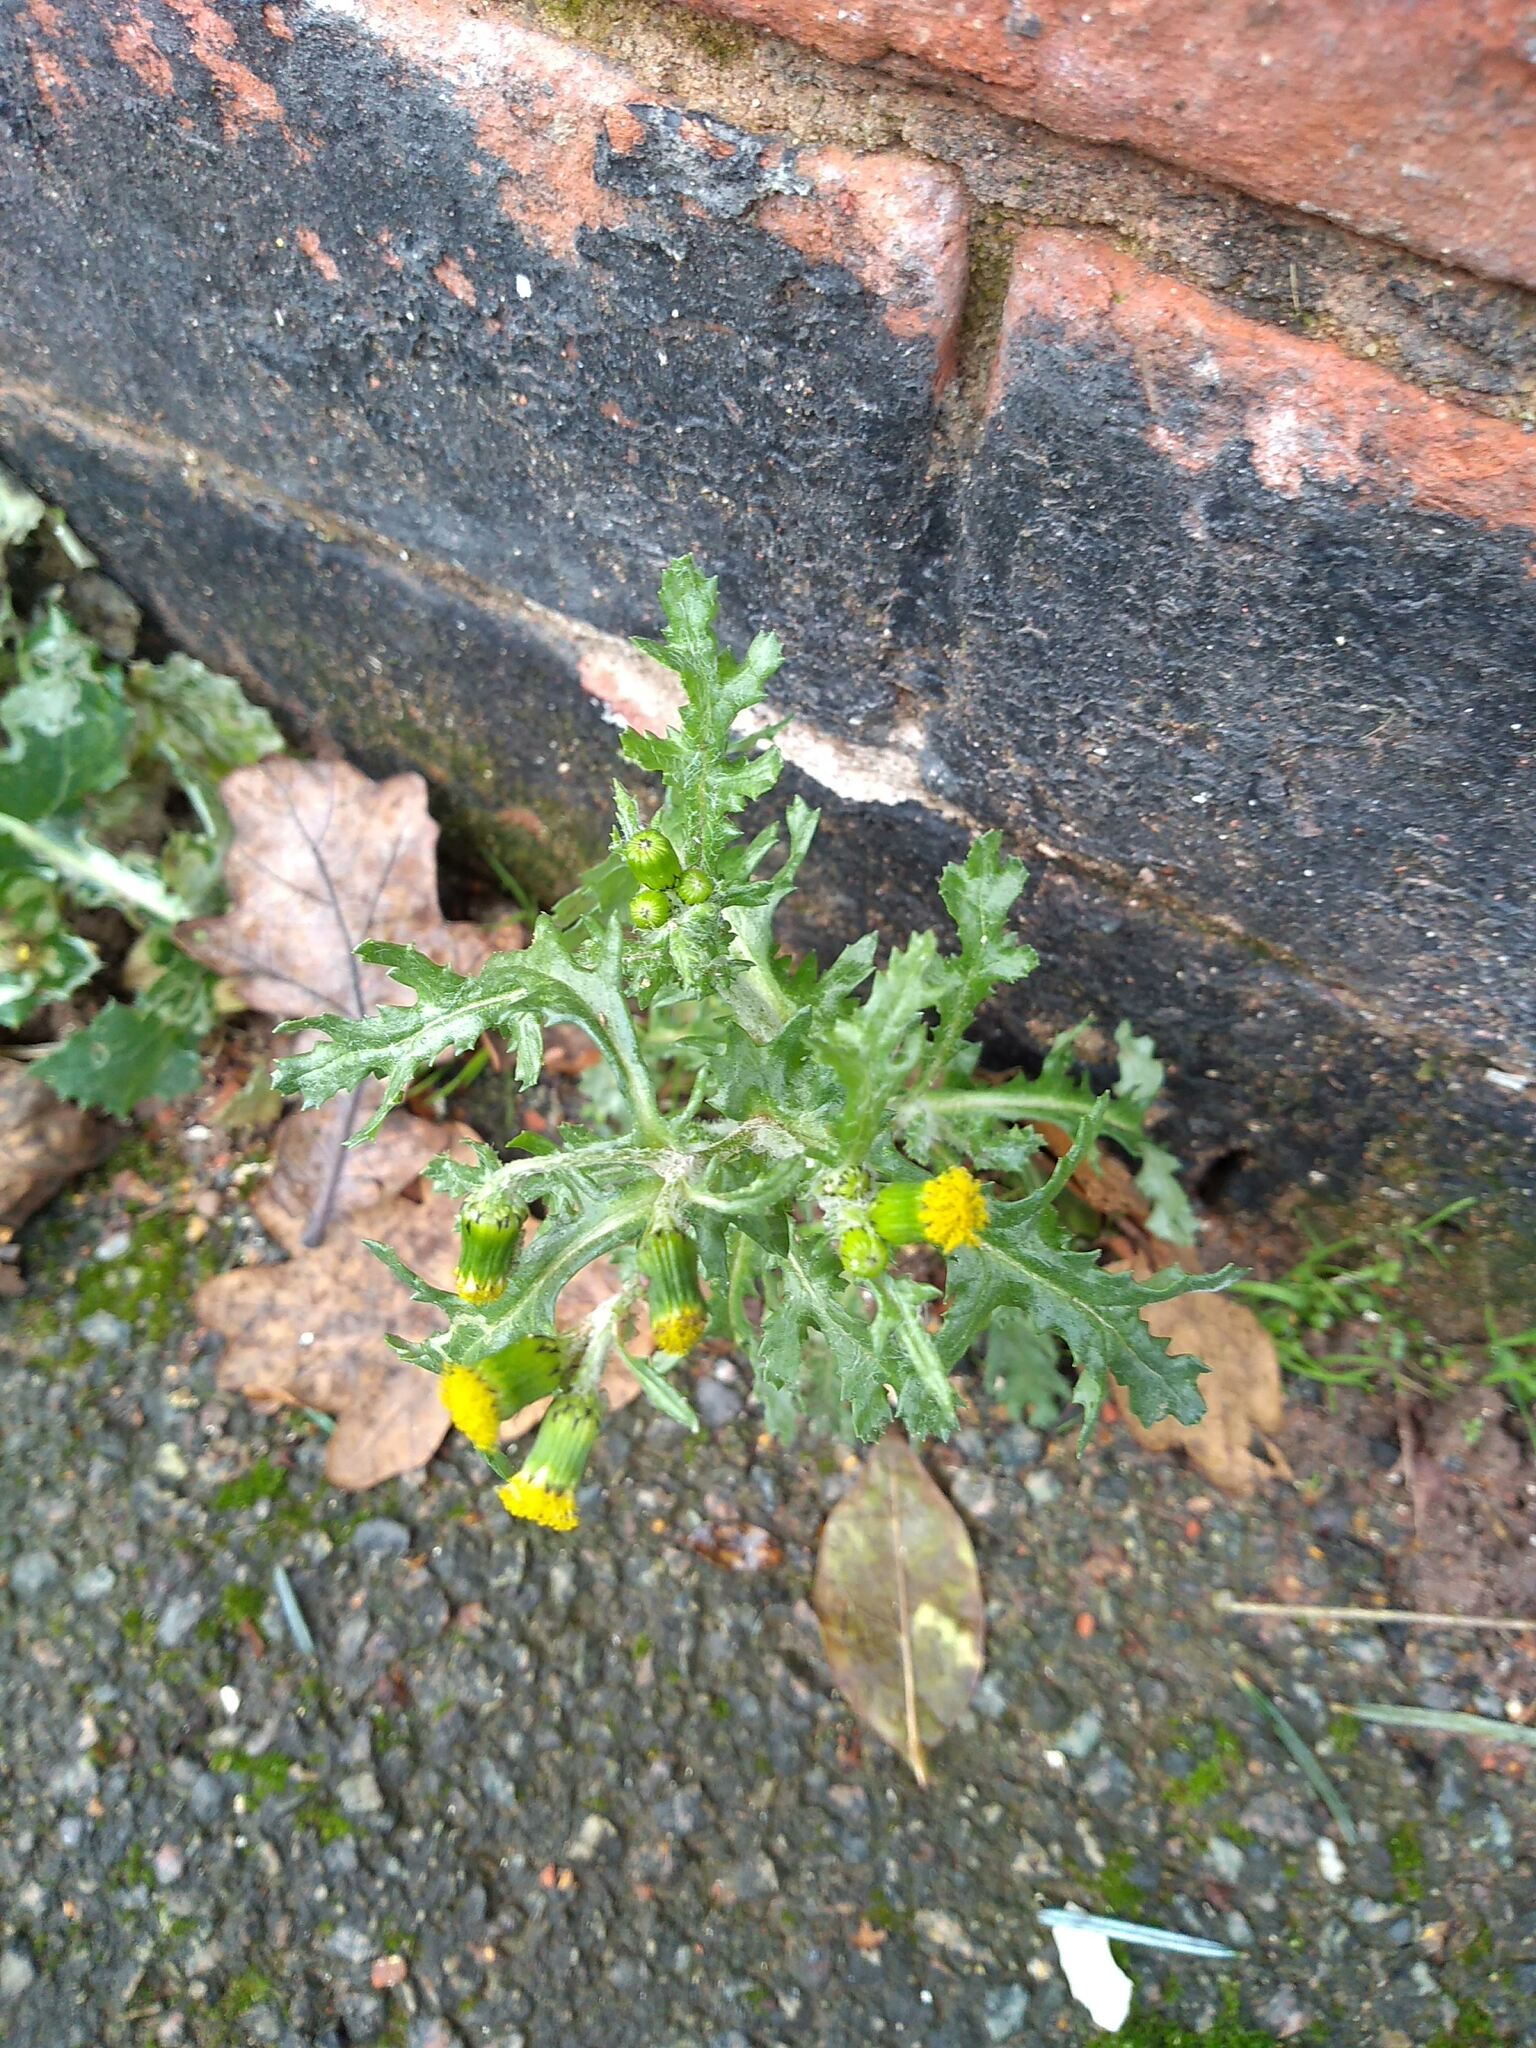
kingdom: Plantae
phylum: Tracheophyta
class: Magnoliopsida
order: Asterales
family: Asteraceae
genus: Senecio
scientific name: Senecio vulgaris
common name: Old-man-in-the-spring
